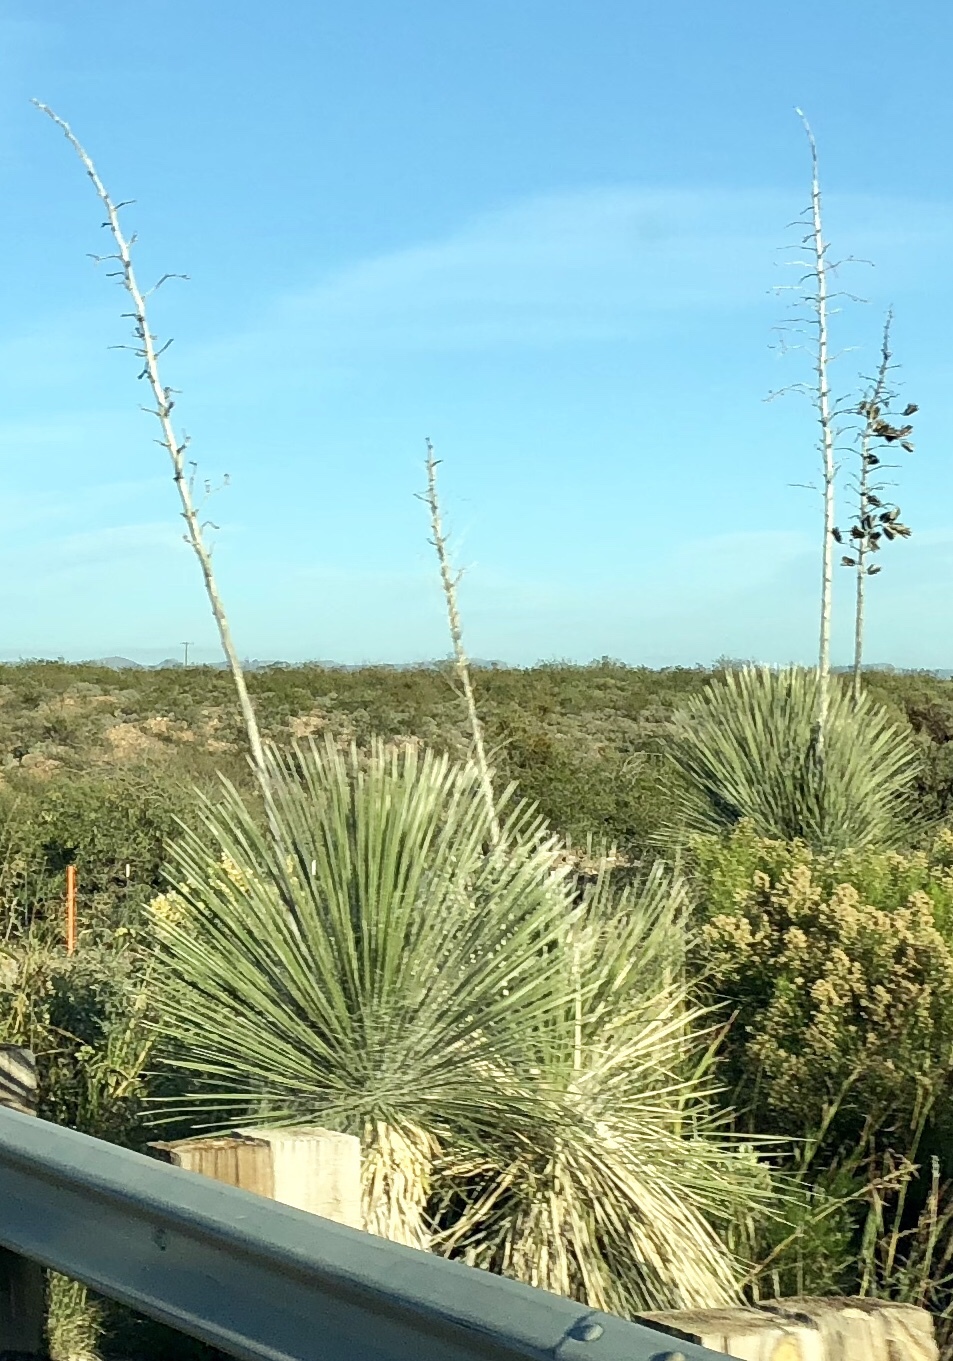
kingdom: Plantae
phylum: Tracheophyta
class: Liliopsida
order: Asparagales
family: Asparagaceae
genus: Yucca
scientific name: Yucca elata
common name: Palmella
